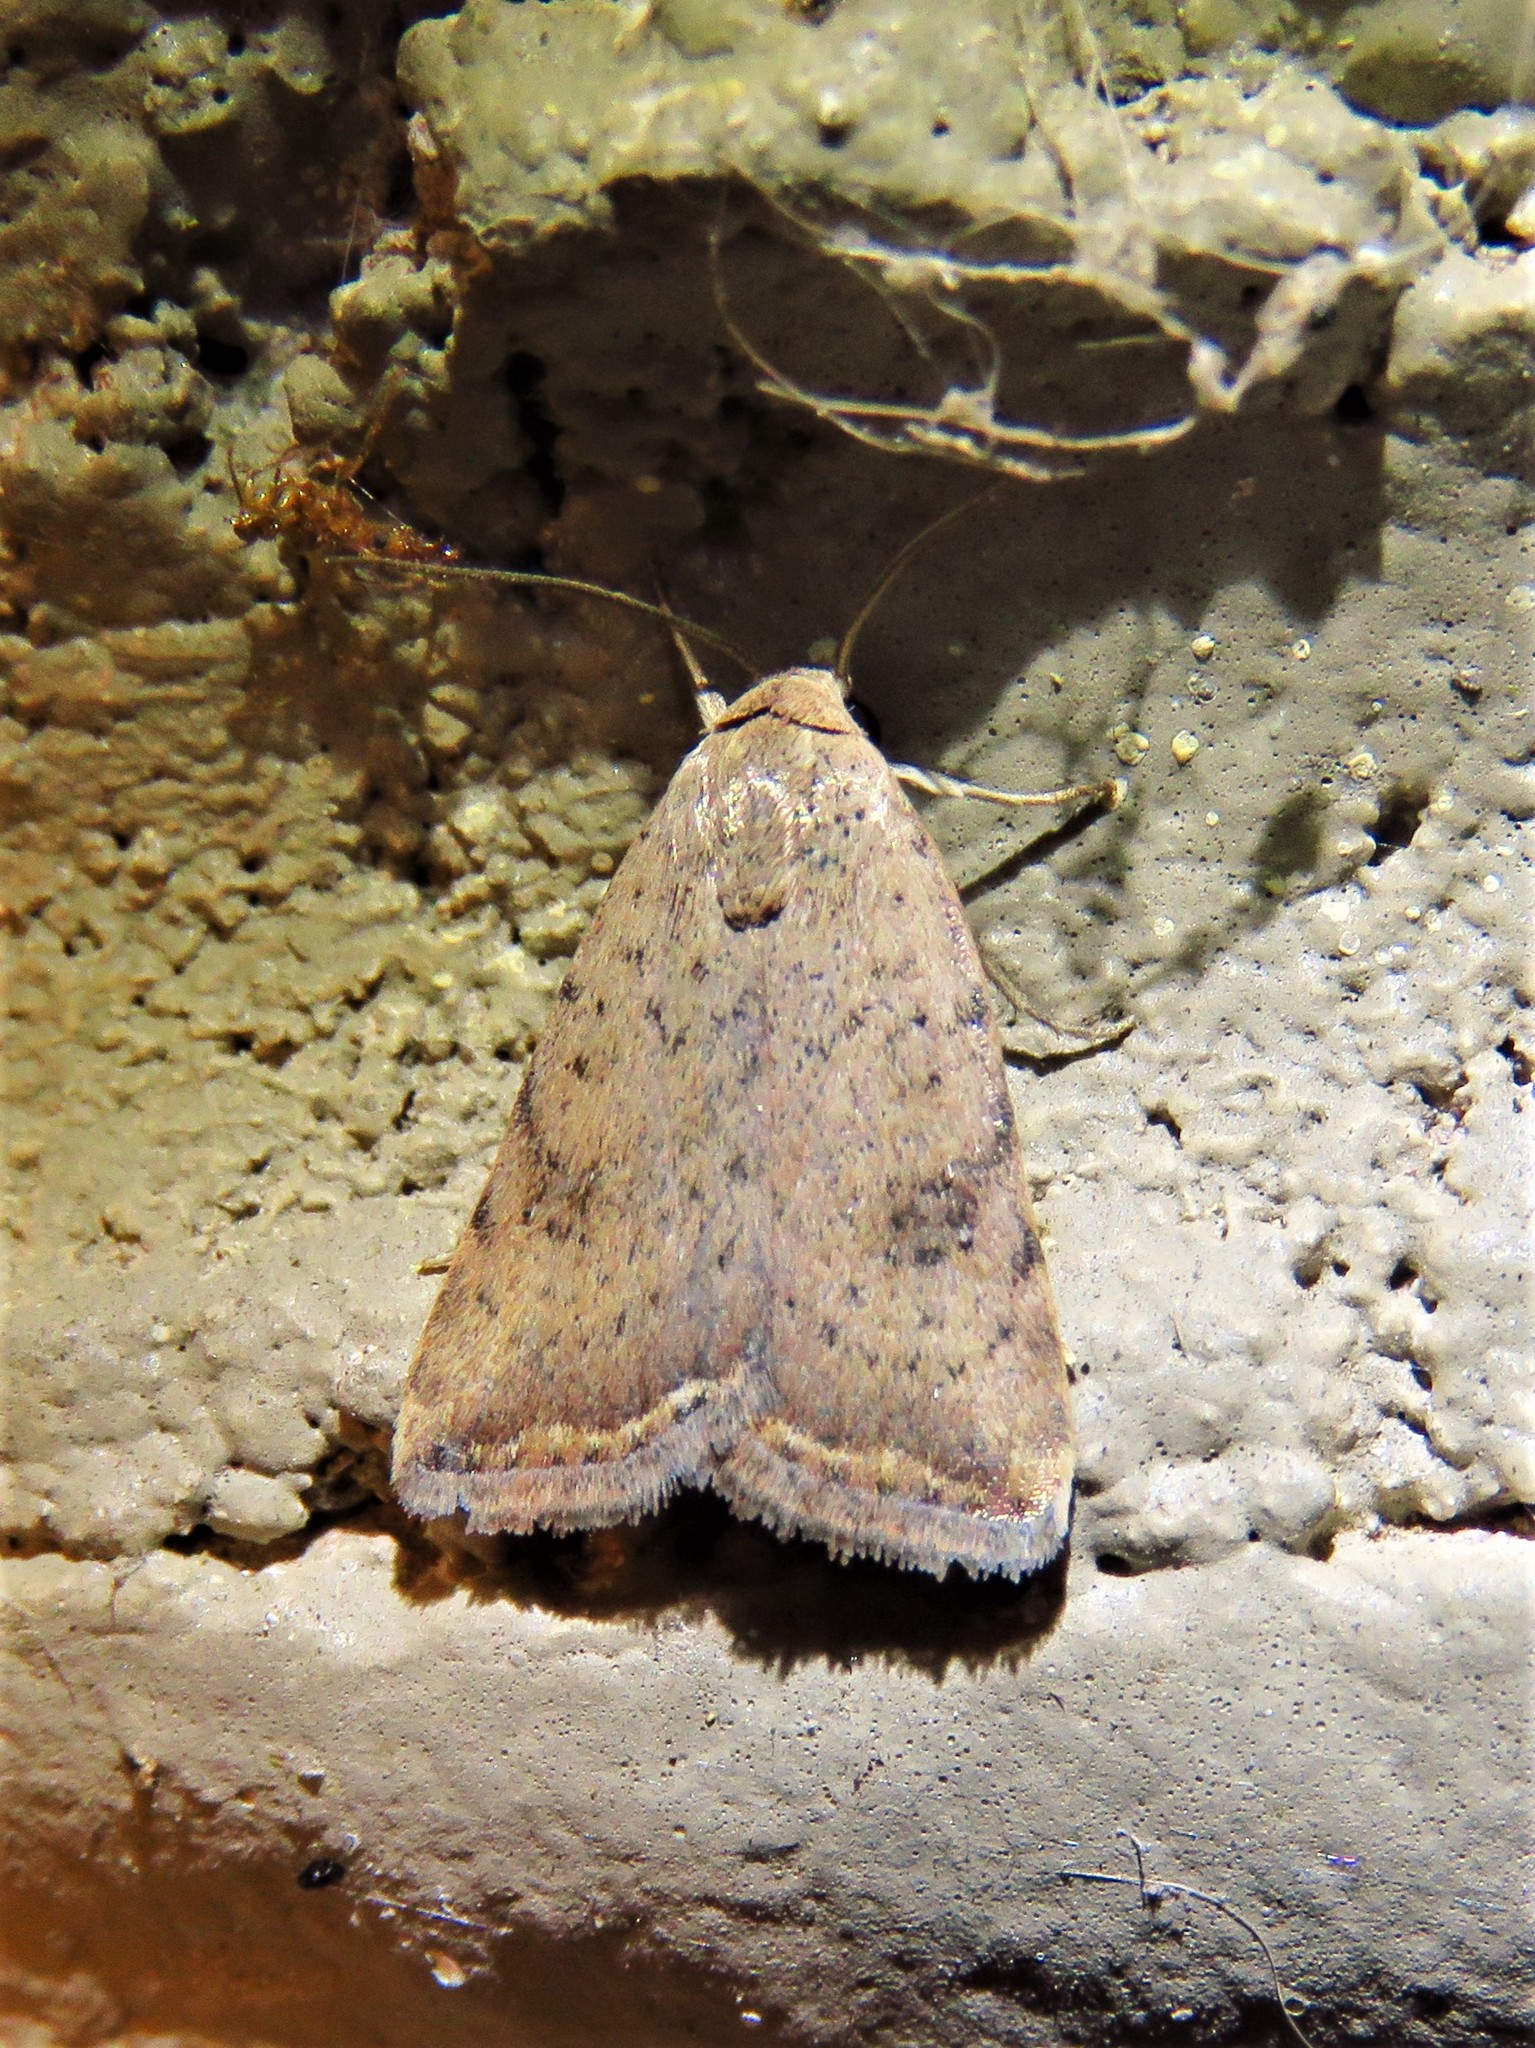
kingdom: Animalia
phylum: Arthropoda
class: Insecta
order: Lepidoptera
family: Noctuidae
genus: Micrathetis
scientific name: Micrathetis triplex
